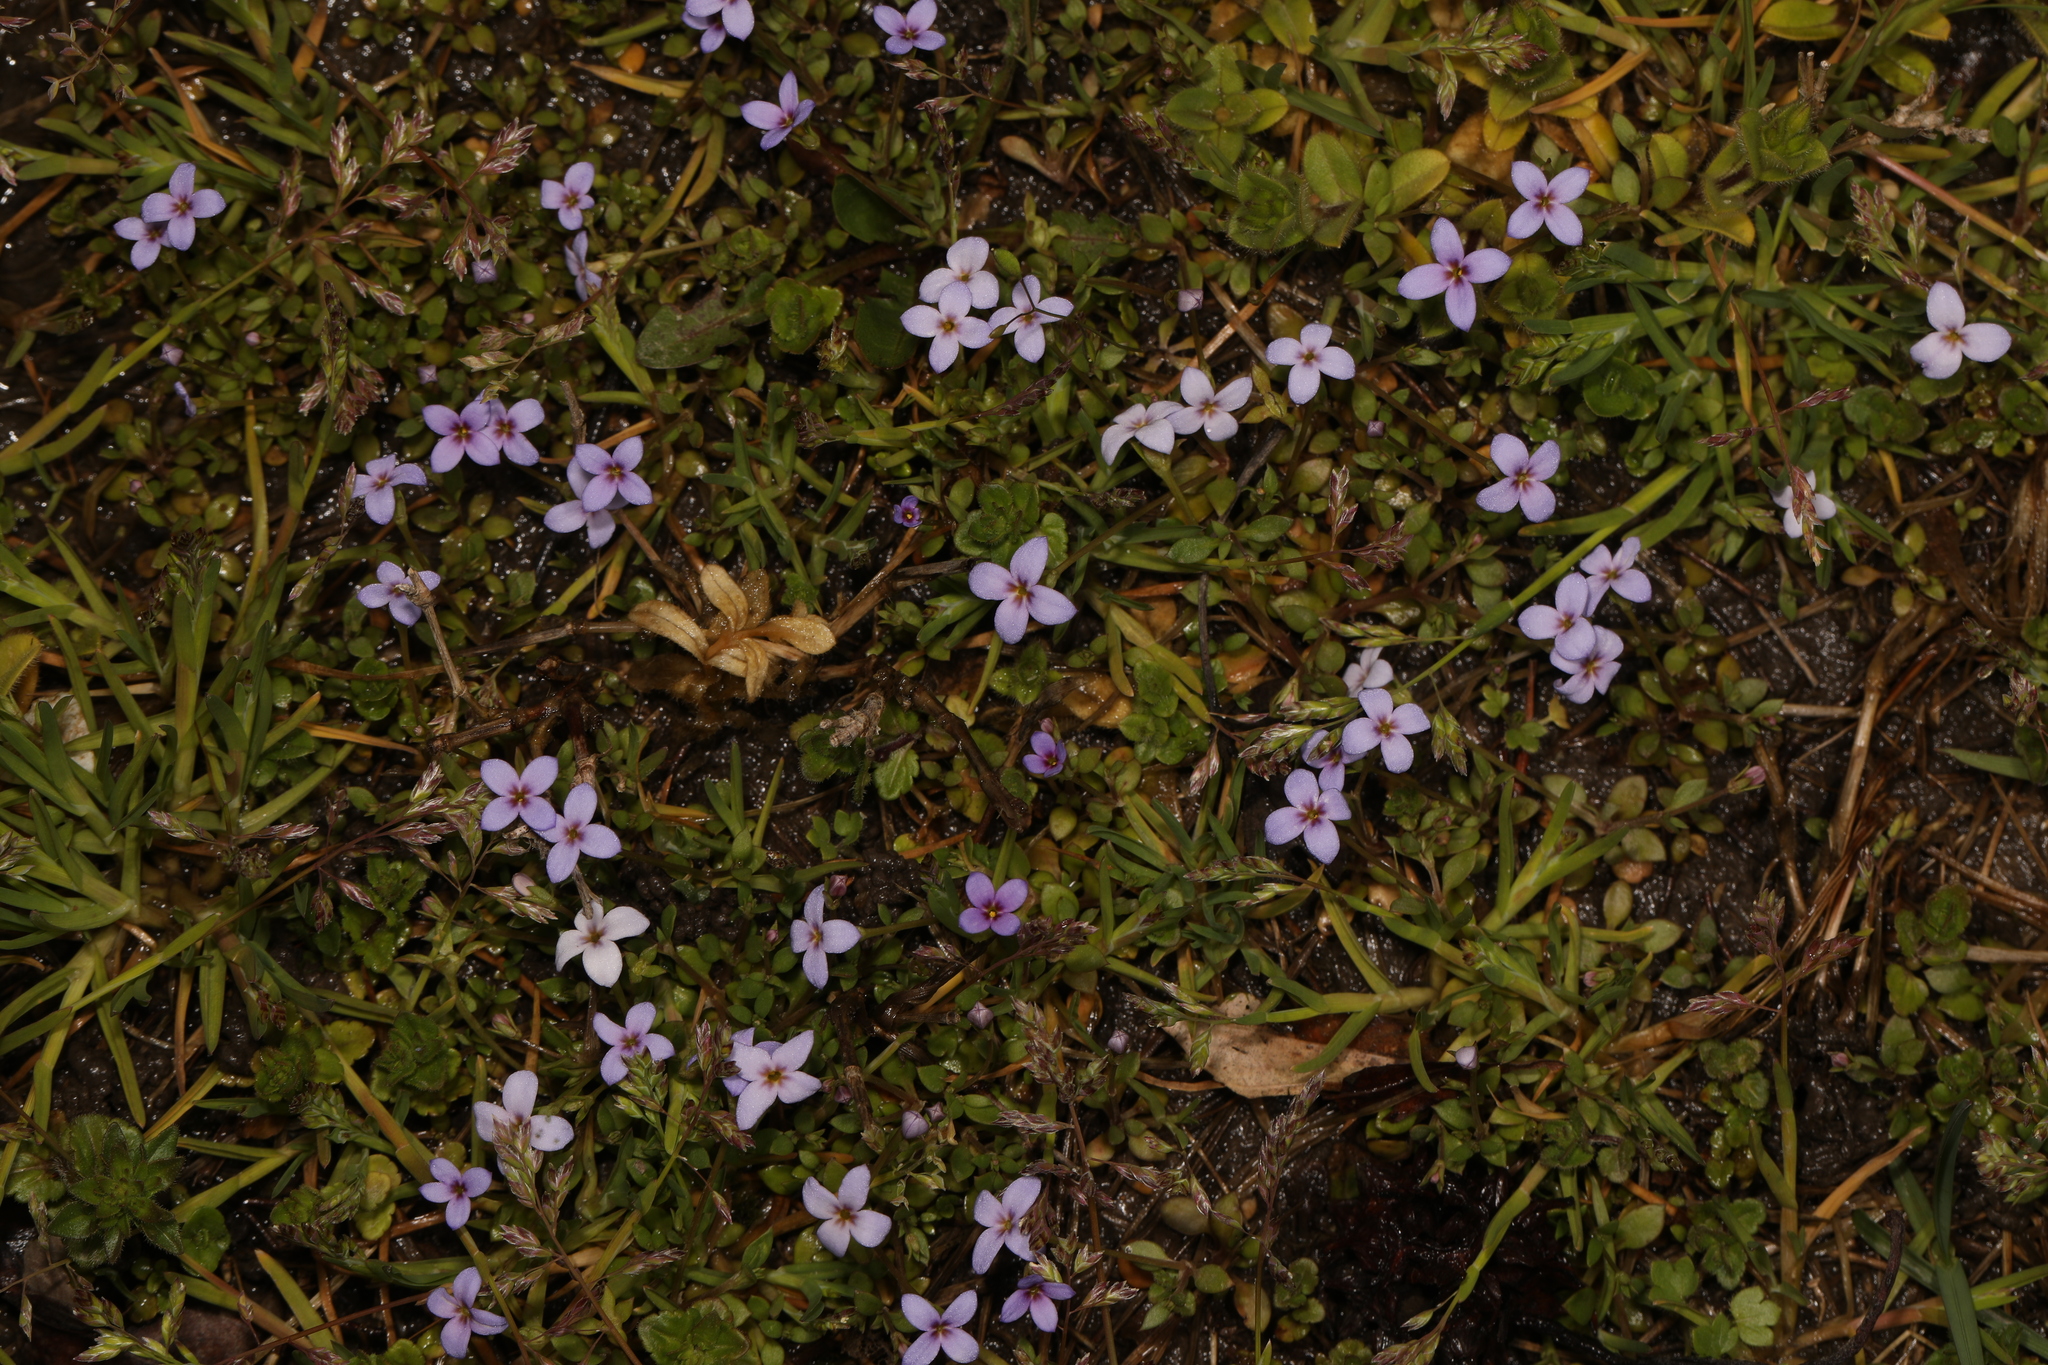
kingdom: Plantae
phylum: Tracheophyta
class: Magnoliopsida
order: Gentianales
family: Rubiaceae
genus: Houstonia
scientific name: Houstonia pusilla
